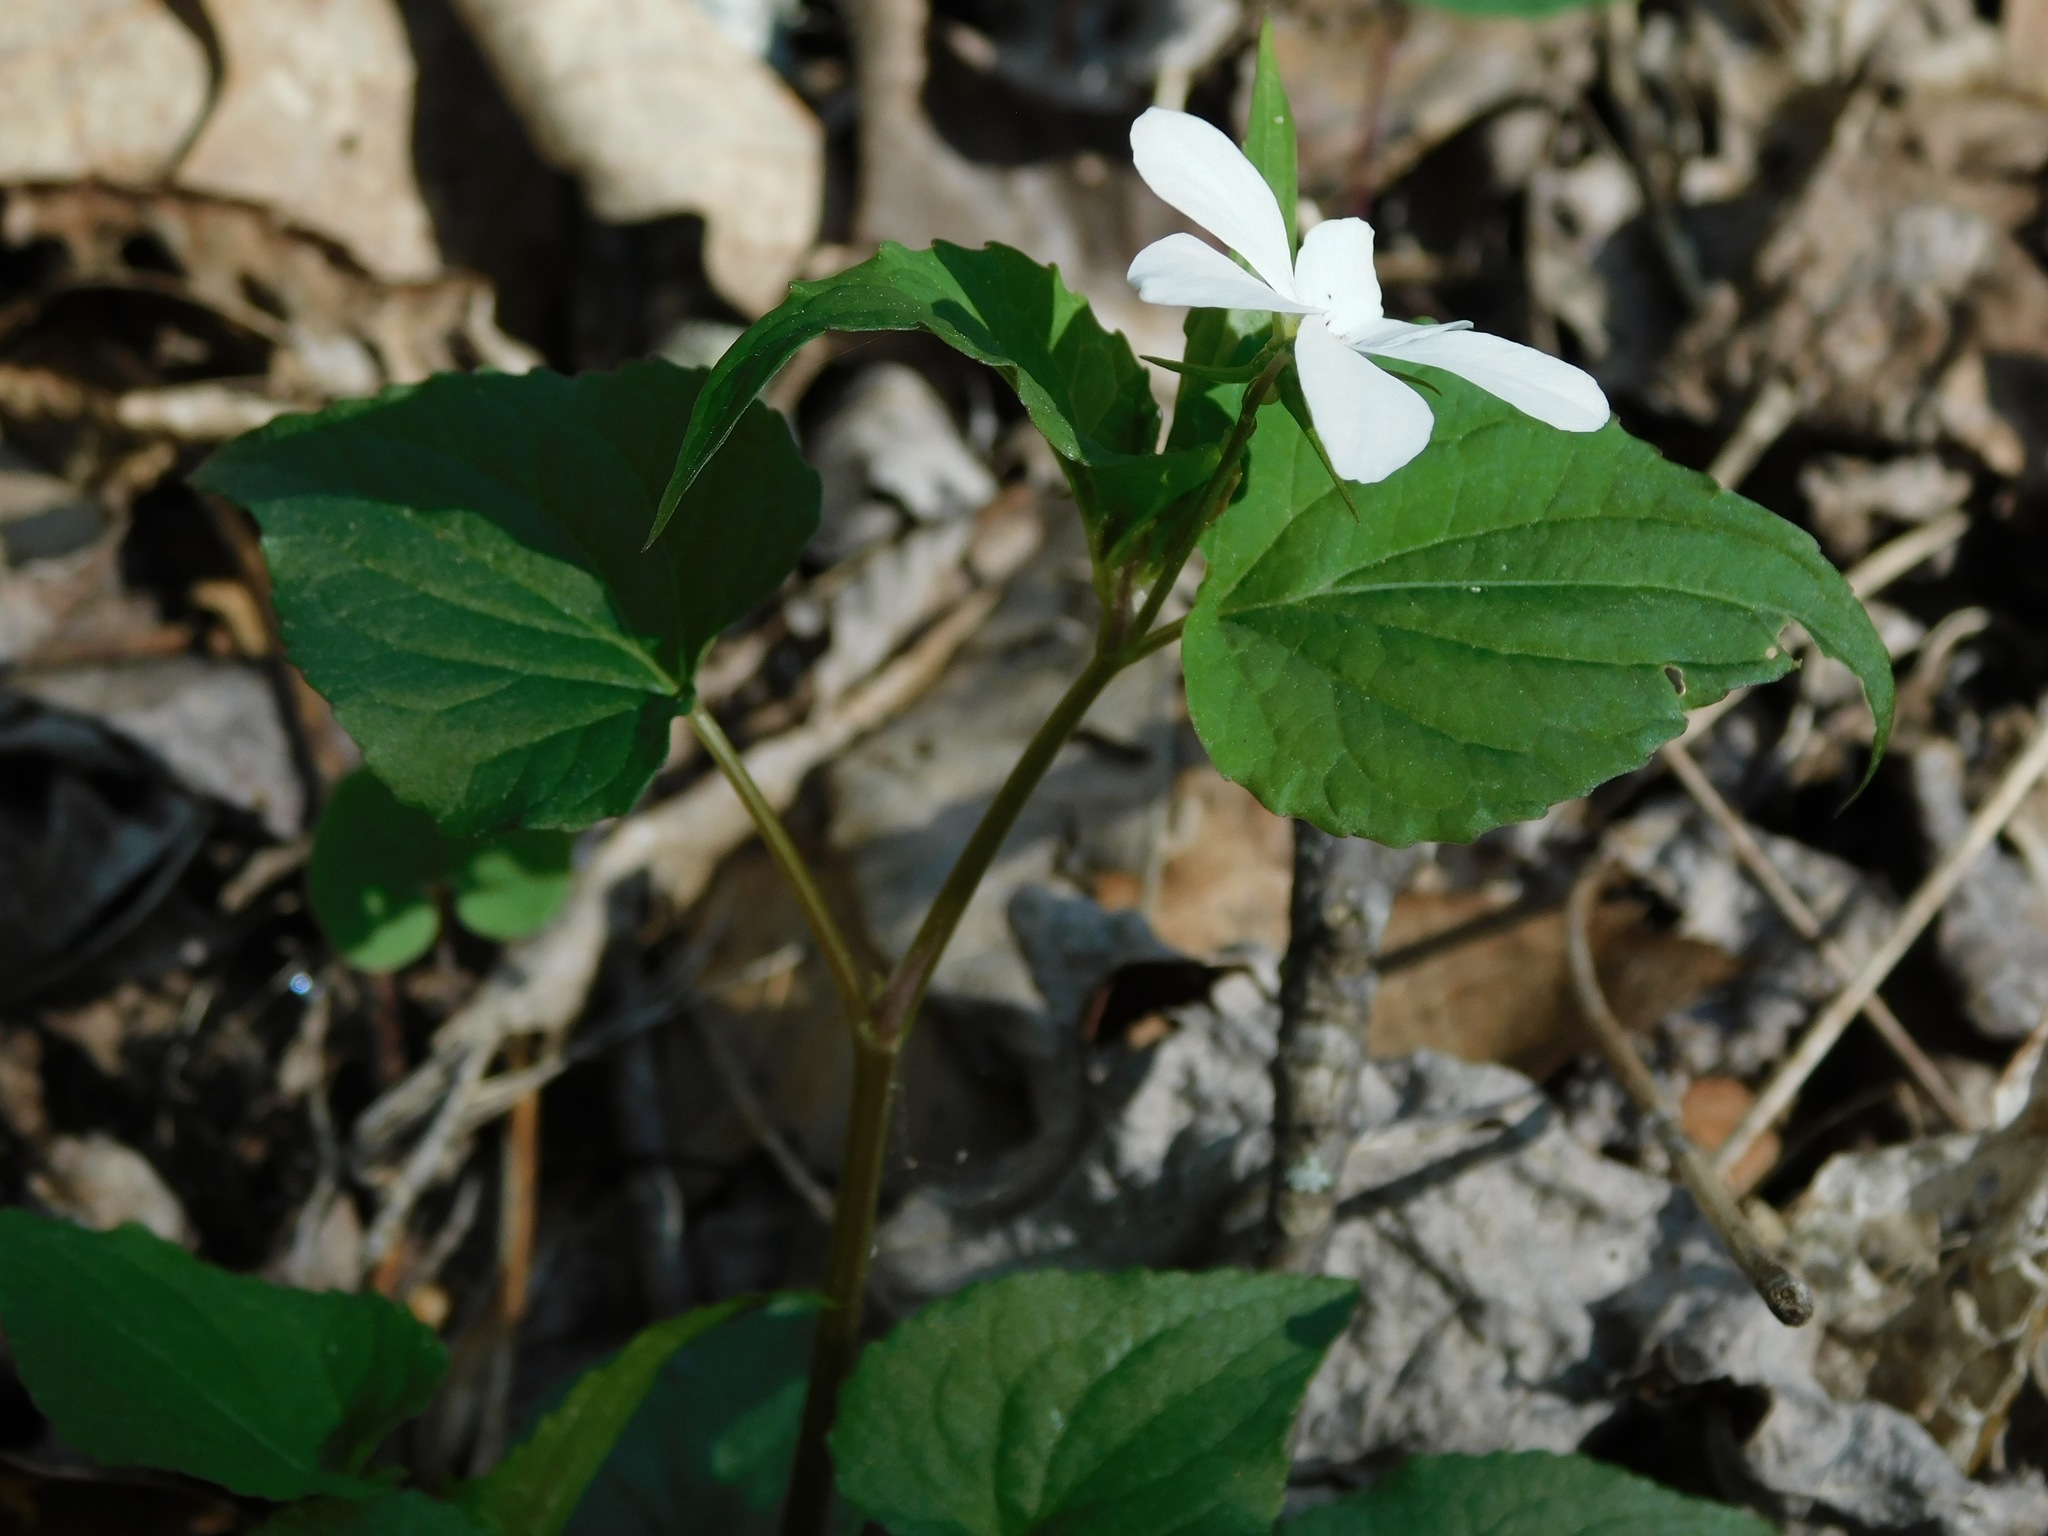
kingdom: Plantae
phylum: Tracheophyta
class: Magnoliopsida
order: Malpighiales
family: Violaceae
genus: Viola
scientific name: Viola canadensis
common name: Canada violet
